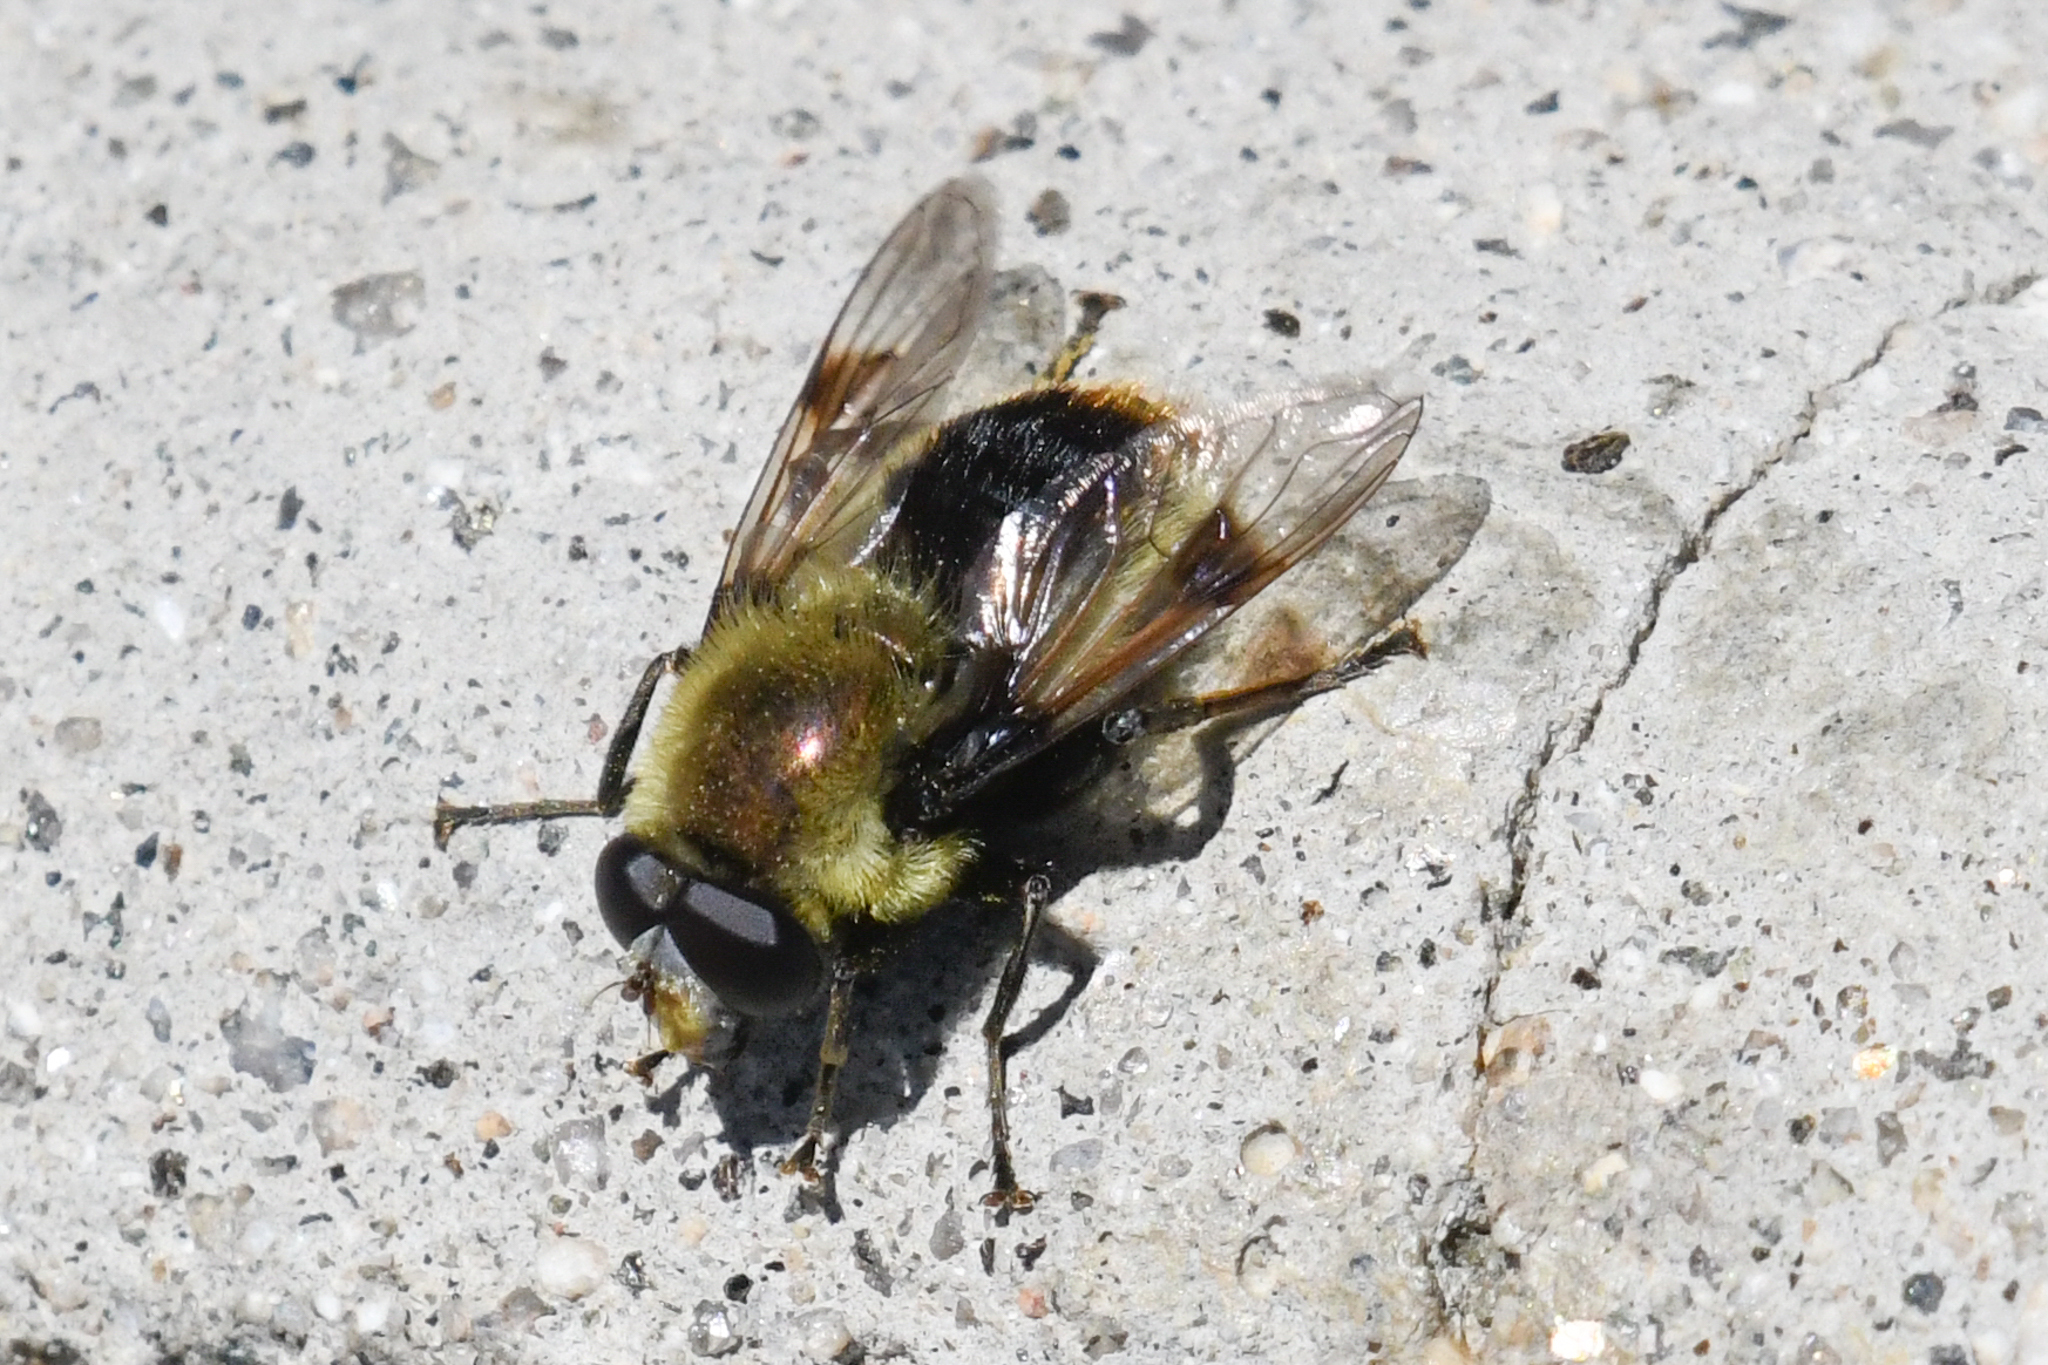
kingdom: Animalia
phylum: Arthropoda
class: Insecta
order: Diptera
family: Syrphidae
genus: Sericomyia
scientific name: Sericomyia flagrans
